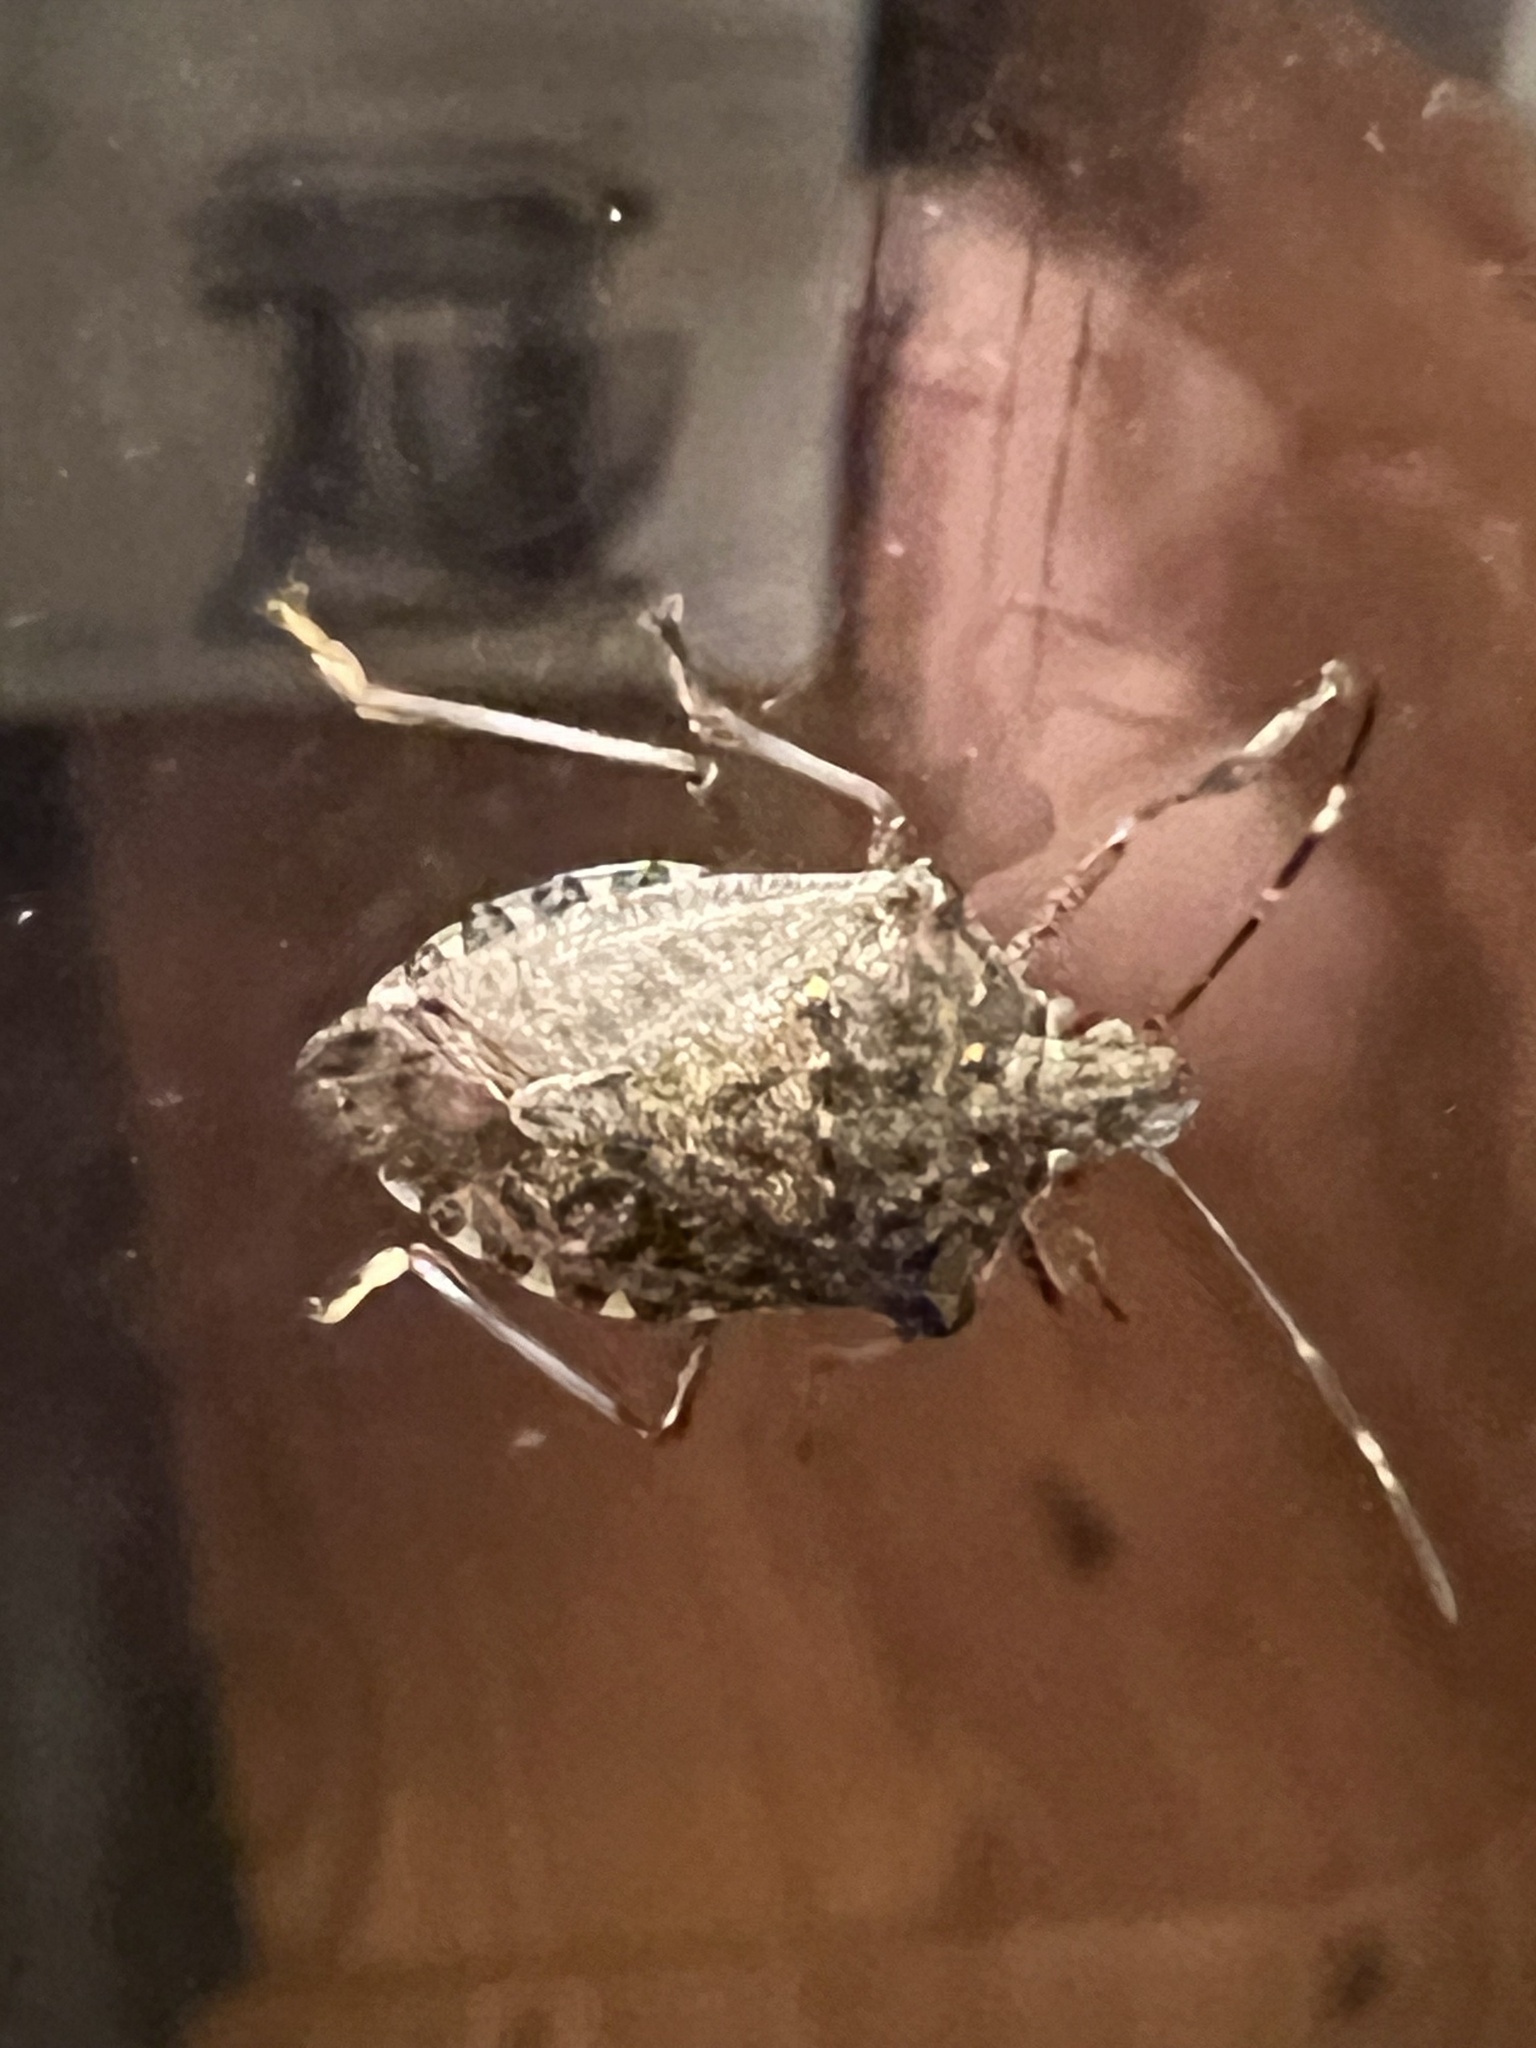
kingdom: Animalia
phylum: Arthropoda
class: Insecta
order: Hemiptera
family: Pentatomidae
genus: Halyomorpha
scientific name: Halyomorpha halys
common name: Brown marmorated stink bug
